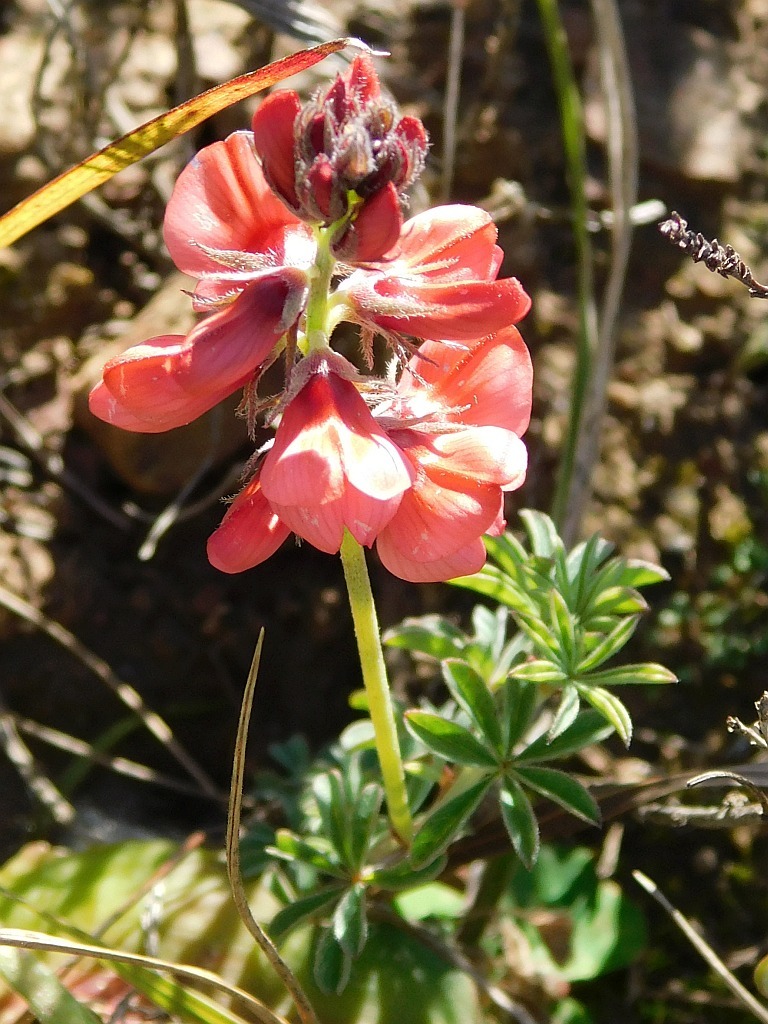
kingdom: Plantae
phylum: Tracheophyta
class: Magnoliopsida
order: Fabales
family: Fabaceae
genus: Indigofera
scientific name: Indigofera digitata
